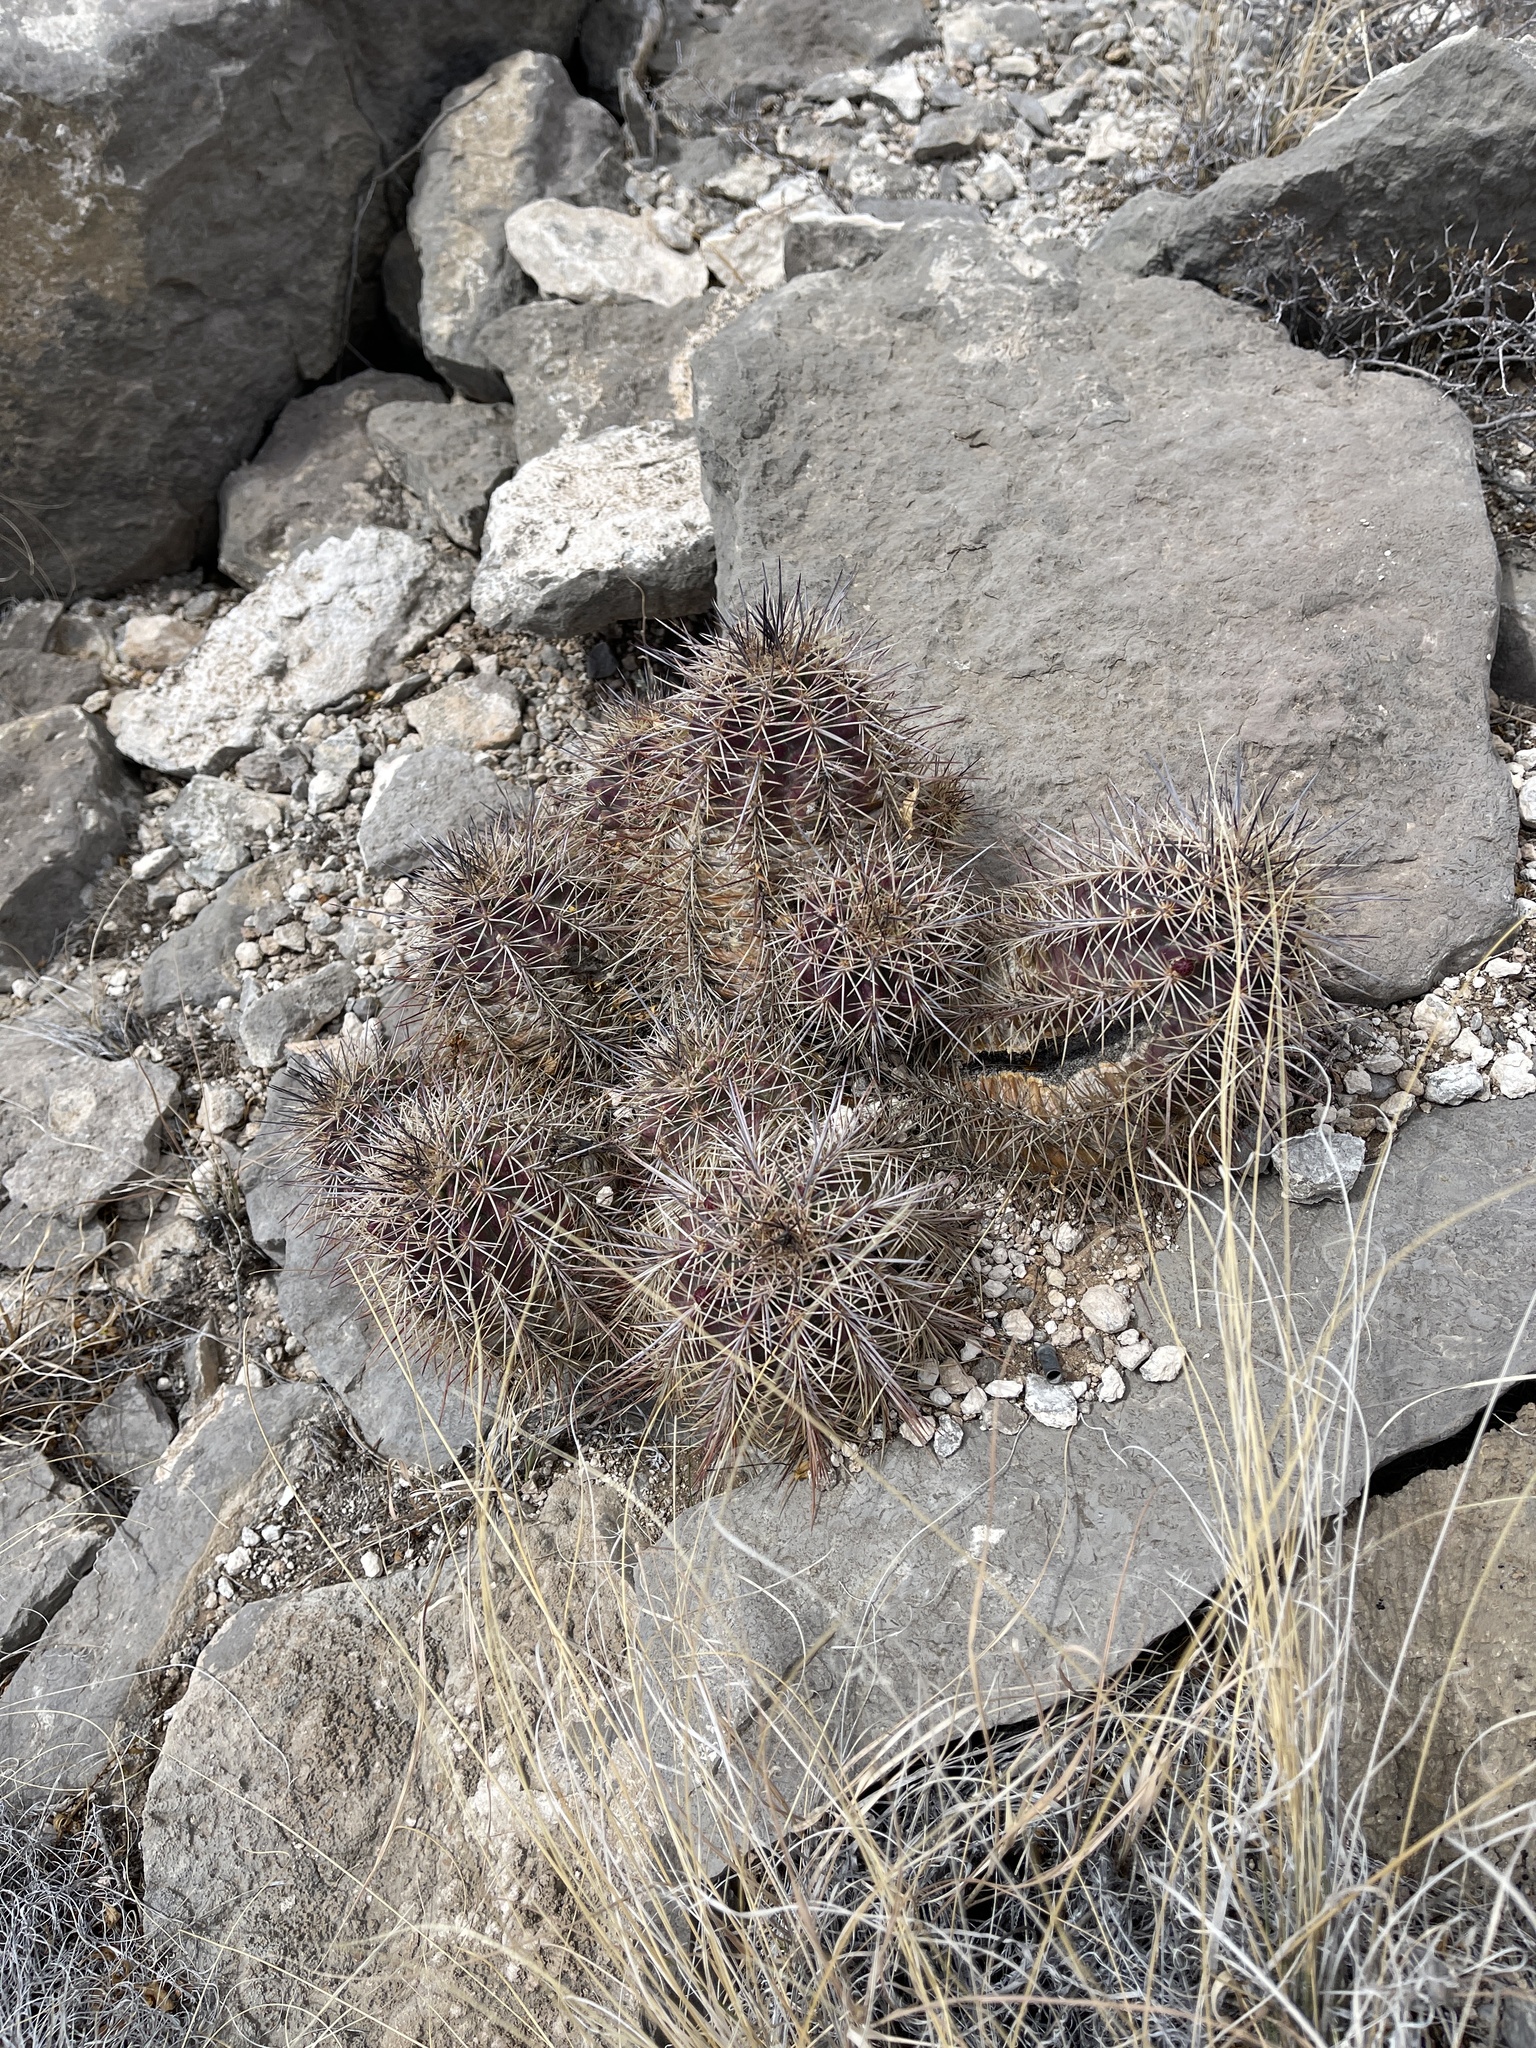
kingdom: Plantae
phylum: Tracheophyta
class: Magnoliopsida
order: Caryophyllales
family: Cactaceae
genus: Echinocereus
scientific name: Echinocereus coccineus
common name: Scarlet hedgehog cactus
